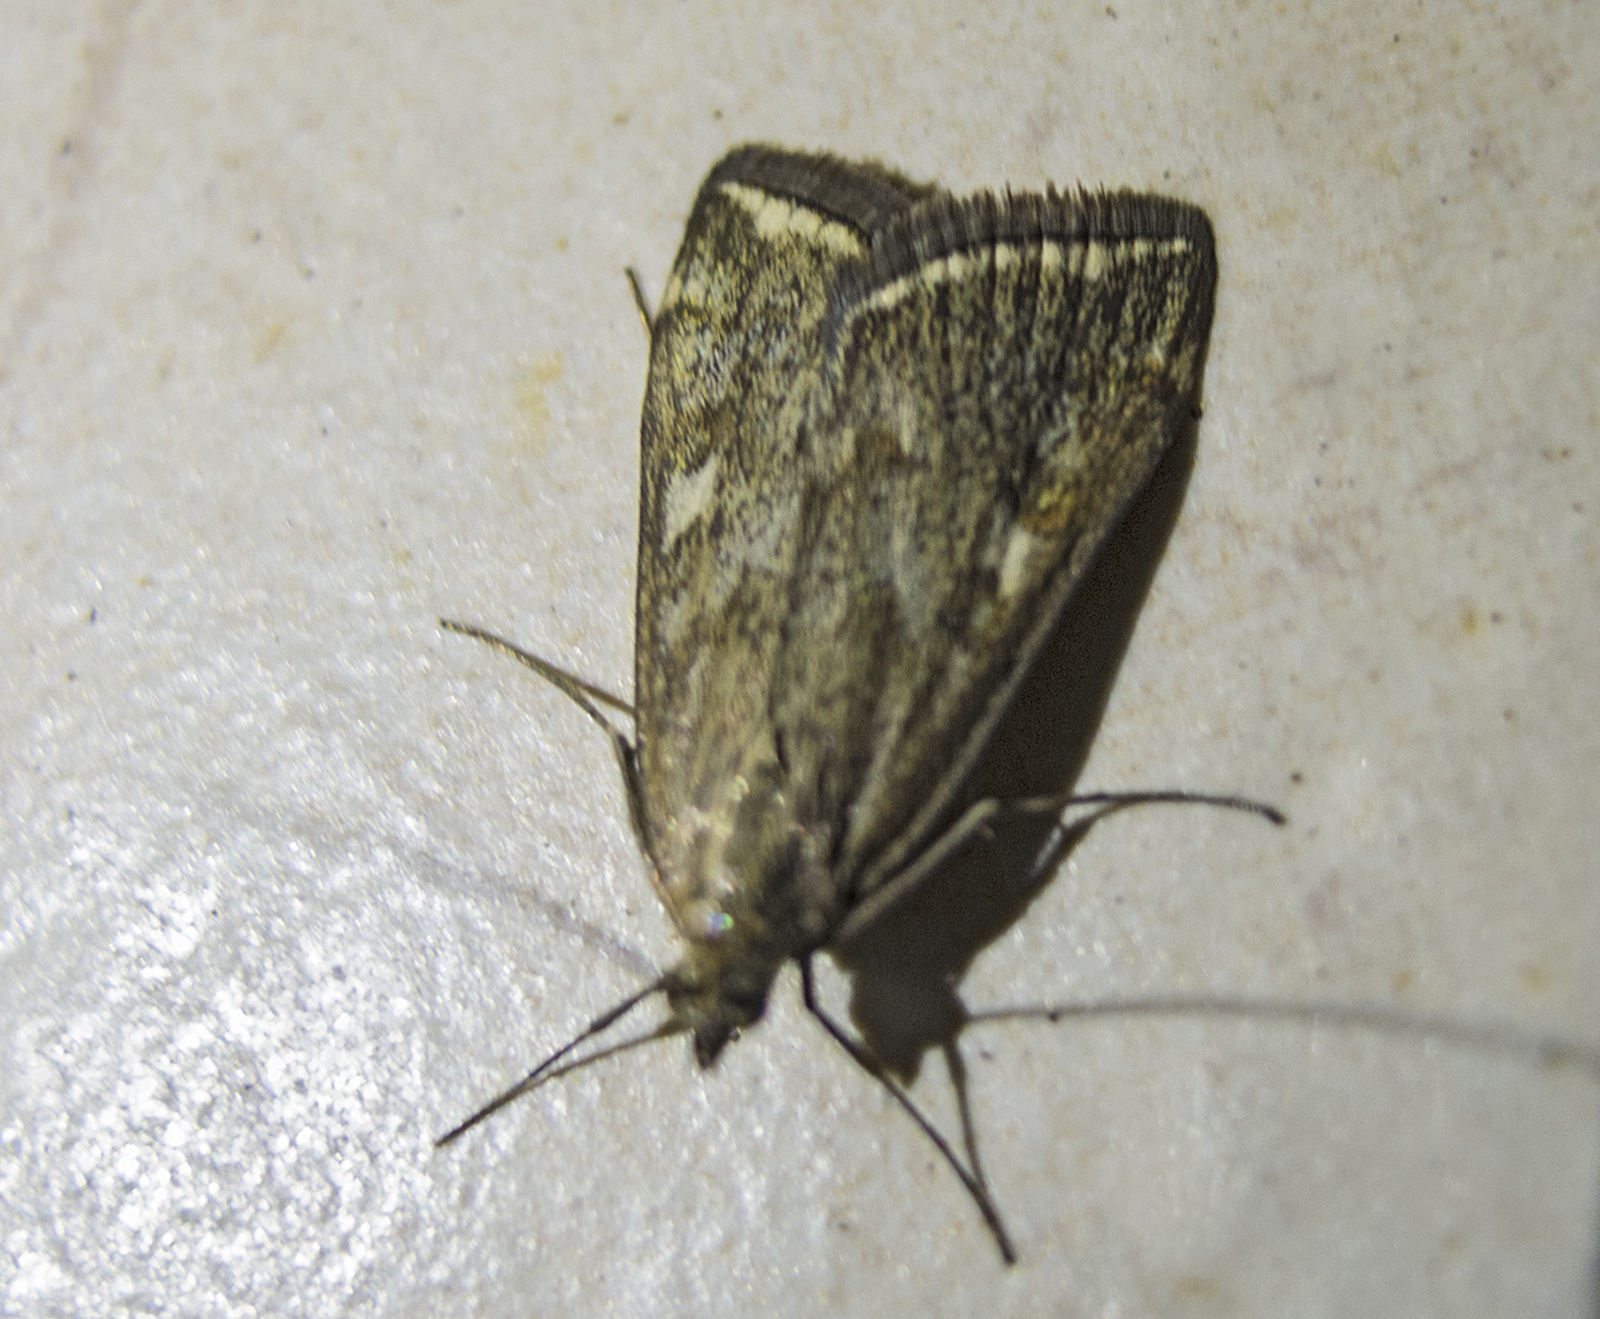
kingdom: Animalia
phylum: Arthropoda
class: Insecta
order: Lepidoptera
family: Crambidae
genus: Loxostege
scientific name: Loxostege sticticalis
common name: Crambid moth
